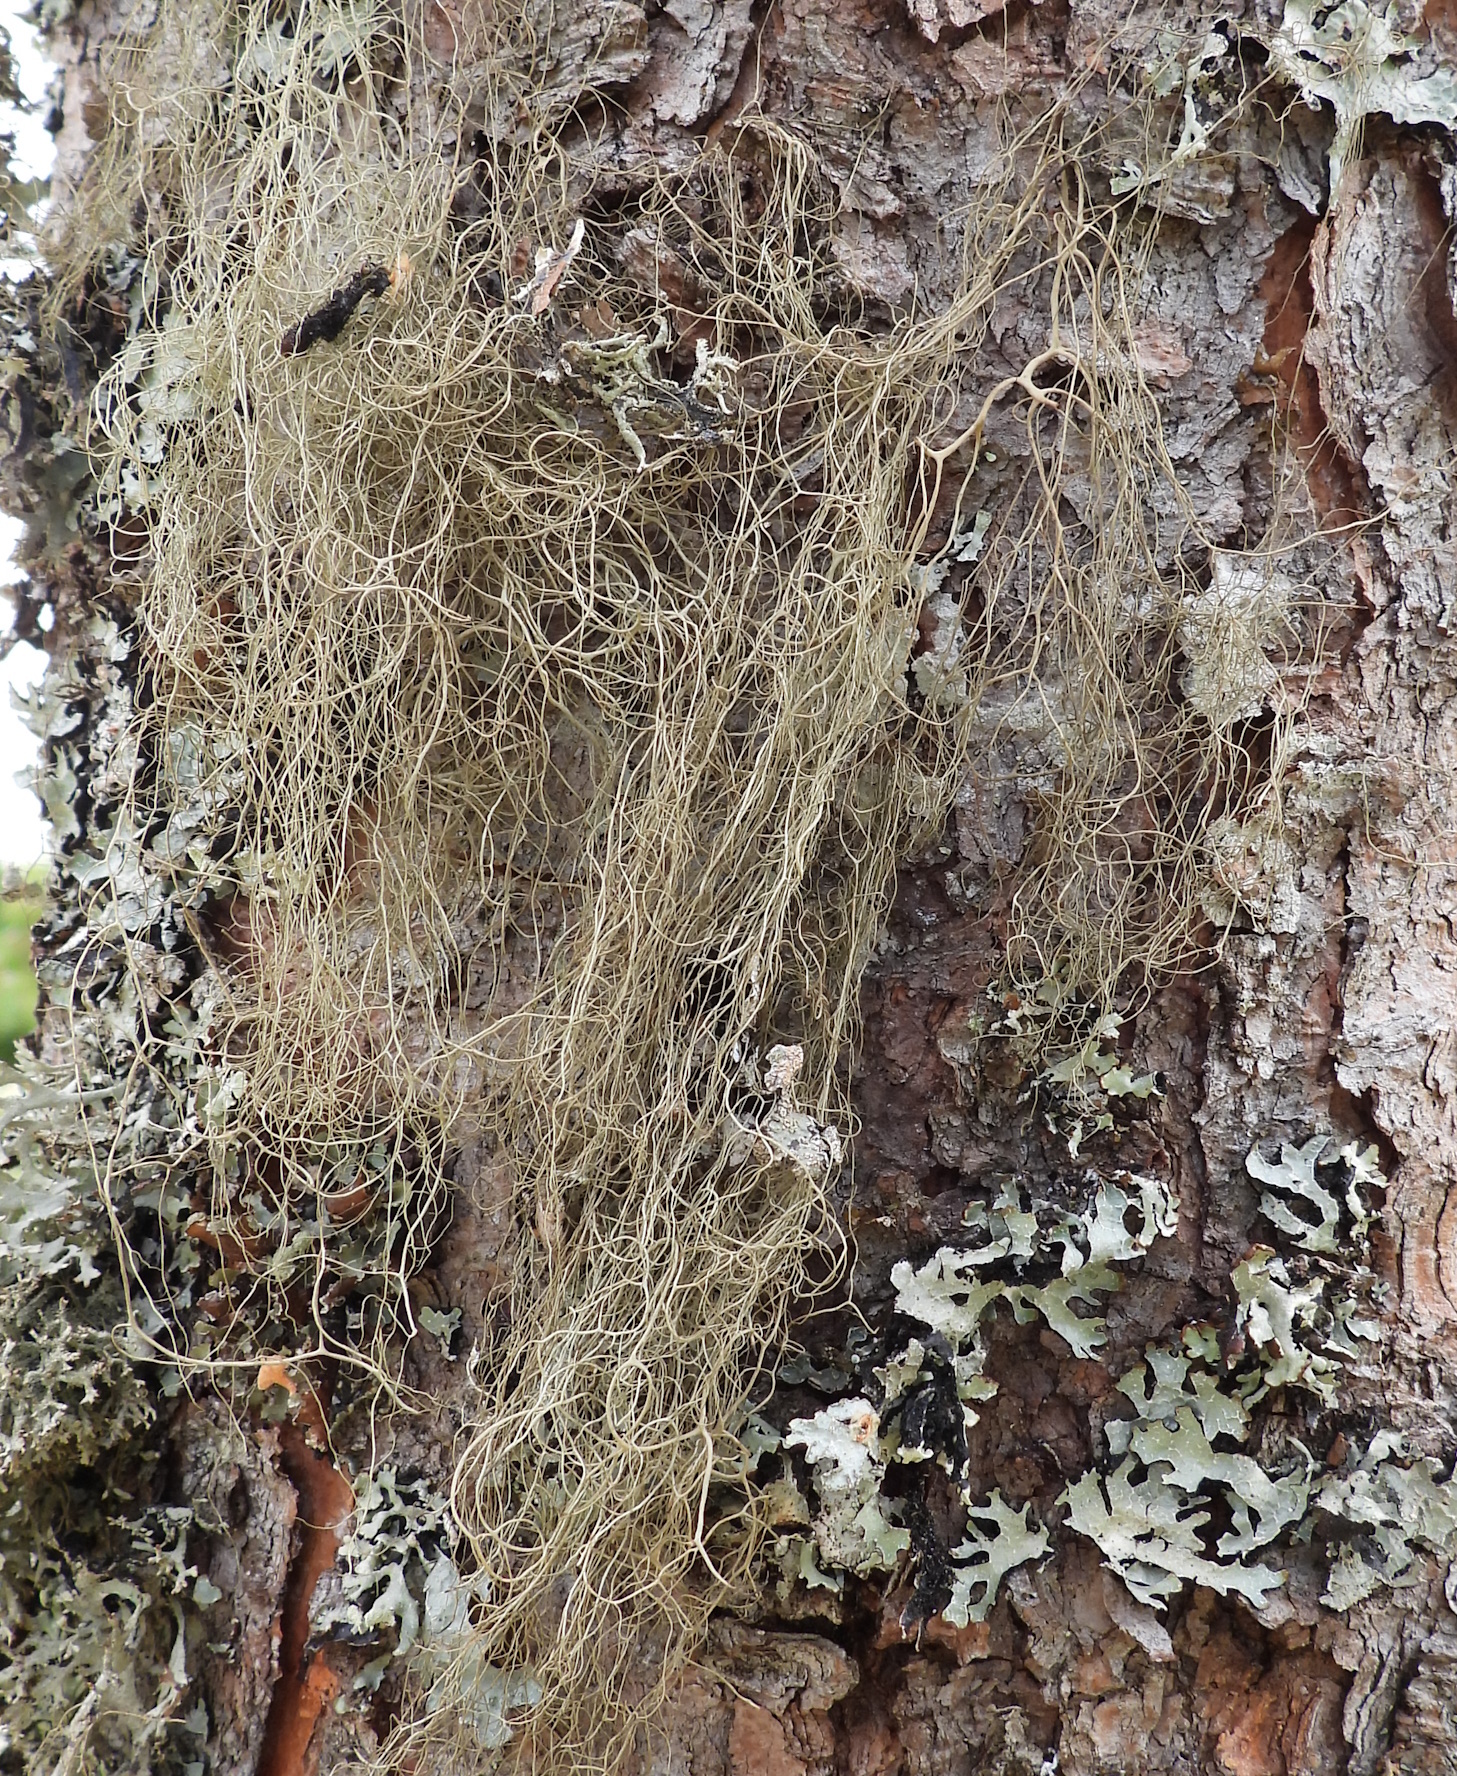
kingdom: Fungi
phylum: Ascomycota
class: Lecanoromycetes
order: Lecanorales
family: Parmeliaceae
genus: Bryoria
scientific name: Bryoria fuscescens
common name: Pale-footed horsehair lichen
